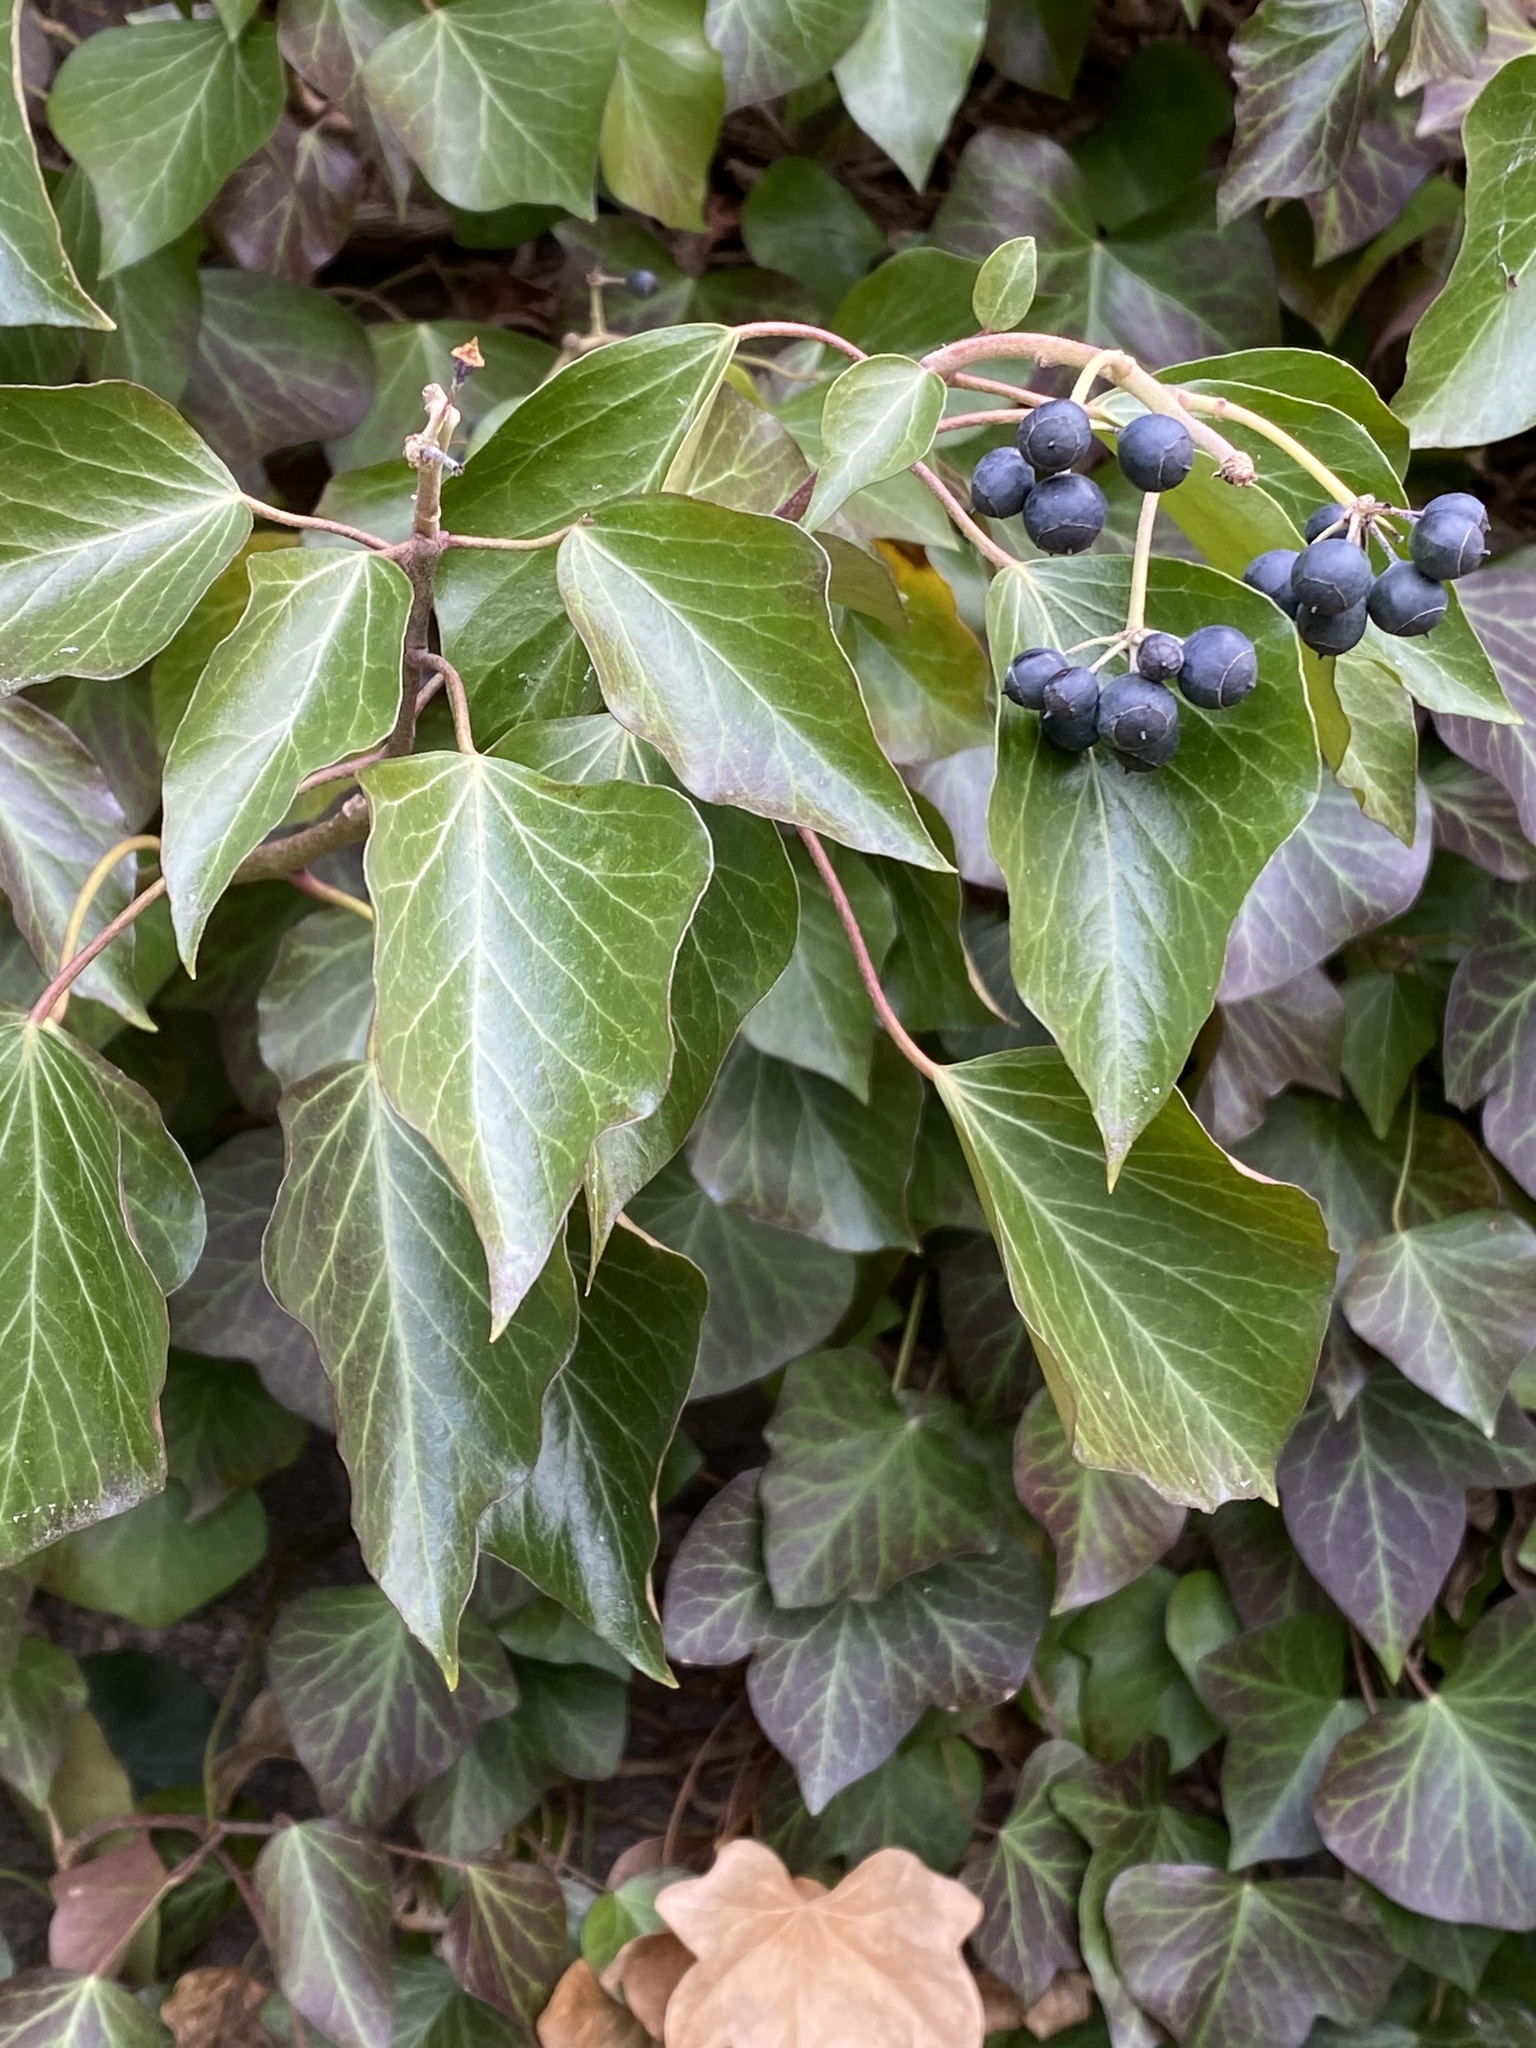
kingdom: Plantae
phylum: Tracheophyta
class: Magnoliopsida
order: Apiales
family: Araliaceae
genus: Hedera
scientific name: Hedera
